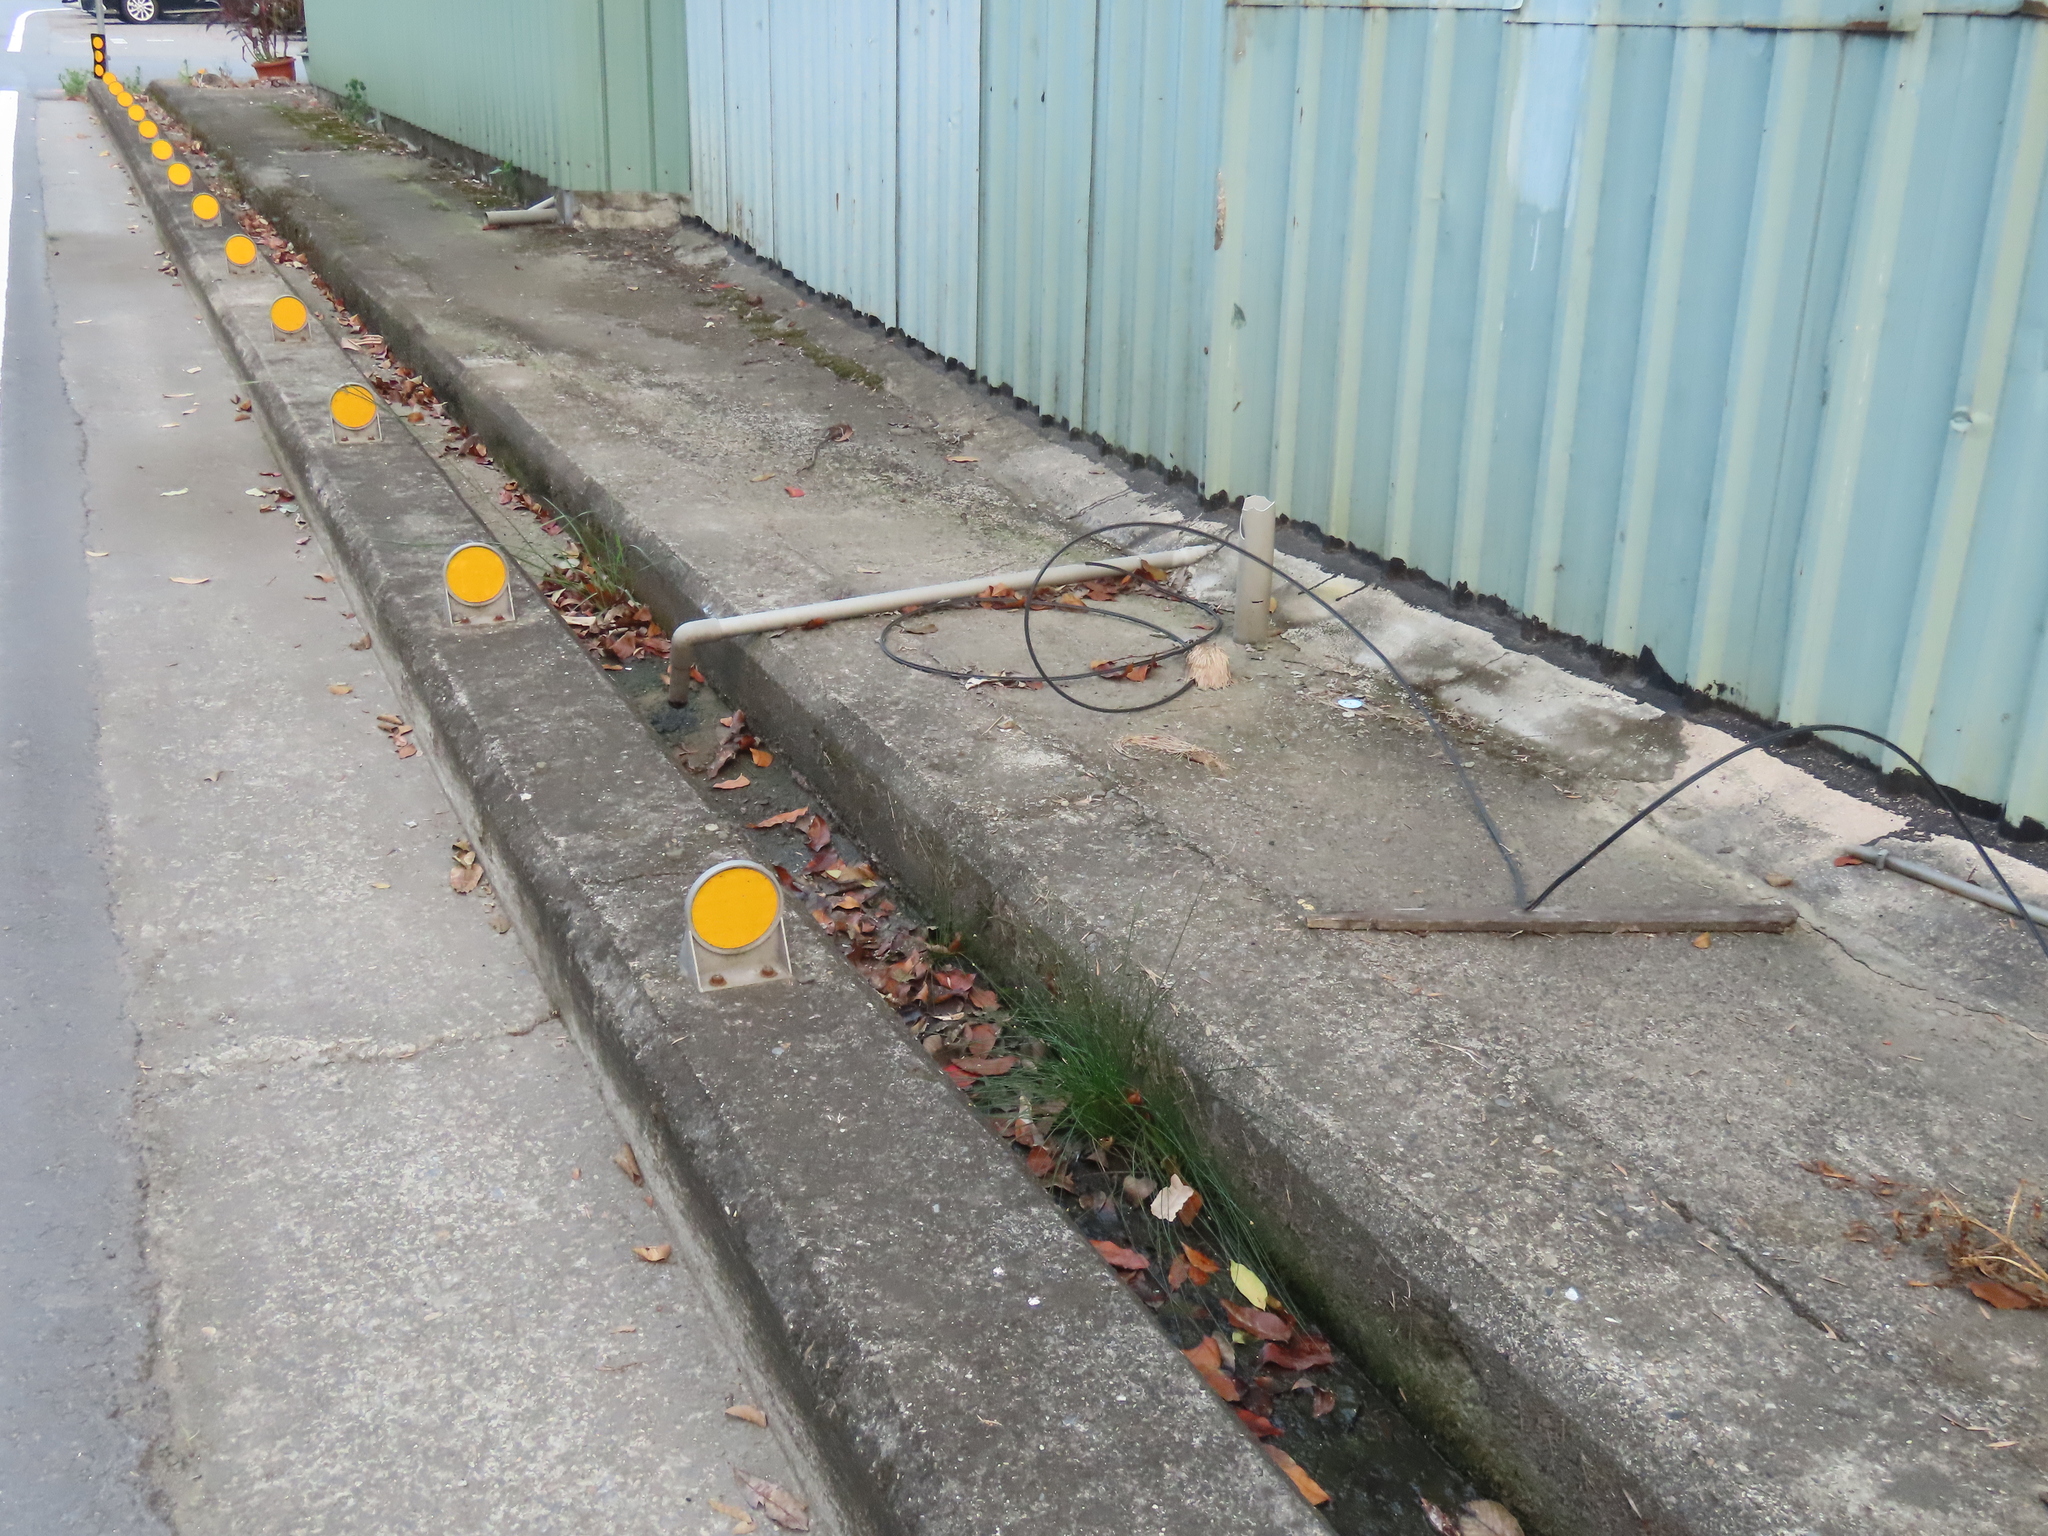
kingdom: Plantae
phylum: Tracheophyta
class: Liliopsida
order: Poales
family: Cyperaceae
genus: Eleocharis
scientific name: Eleocharis geniculata
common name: Canada spikesedge
